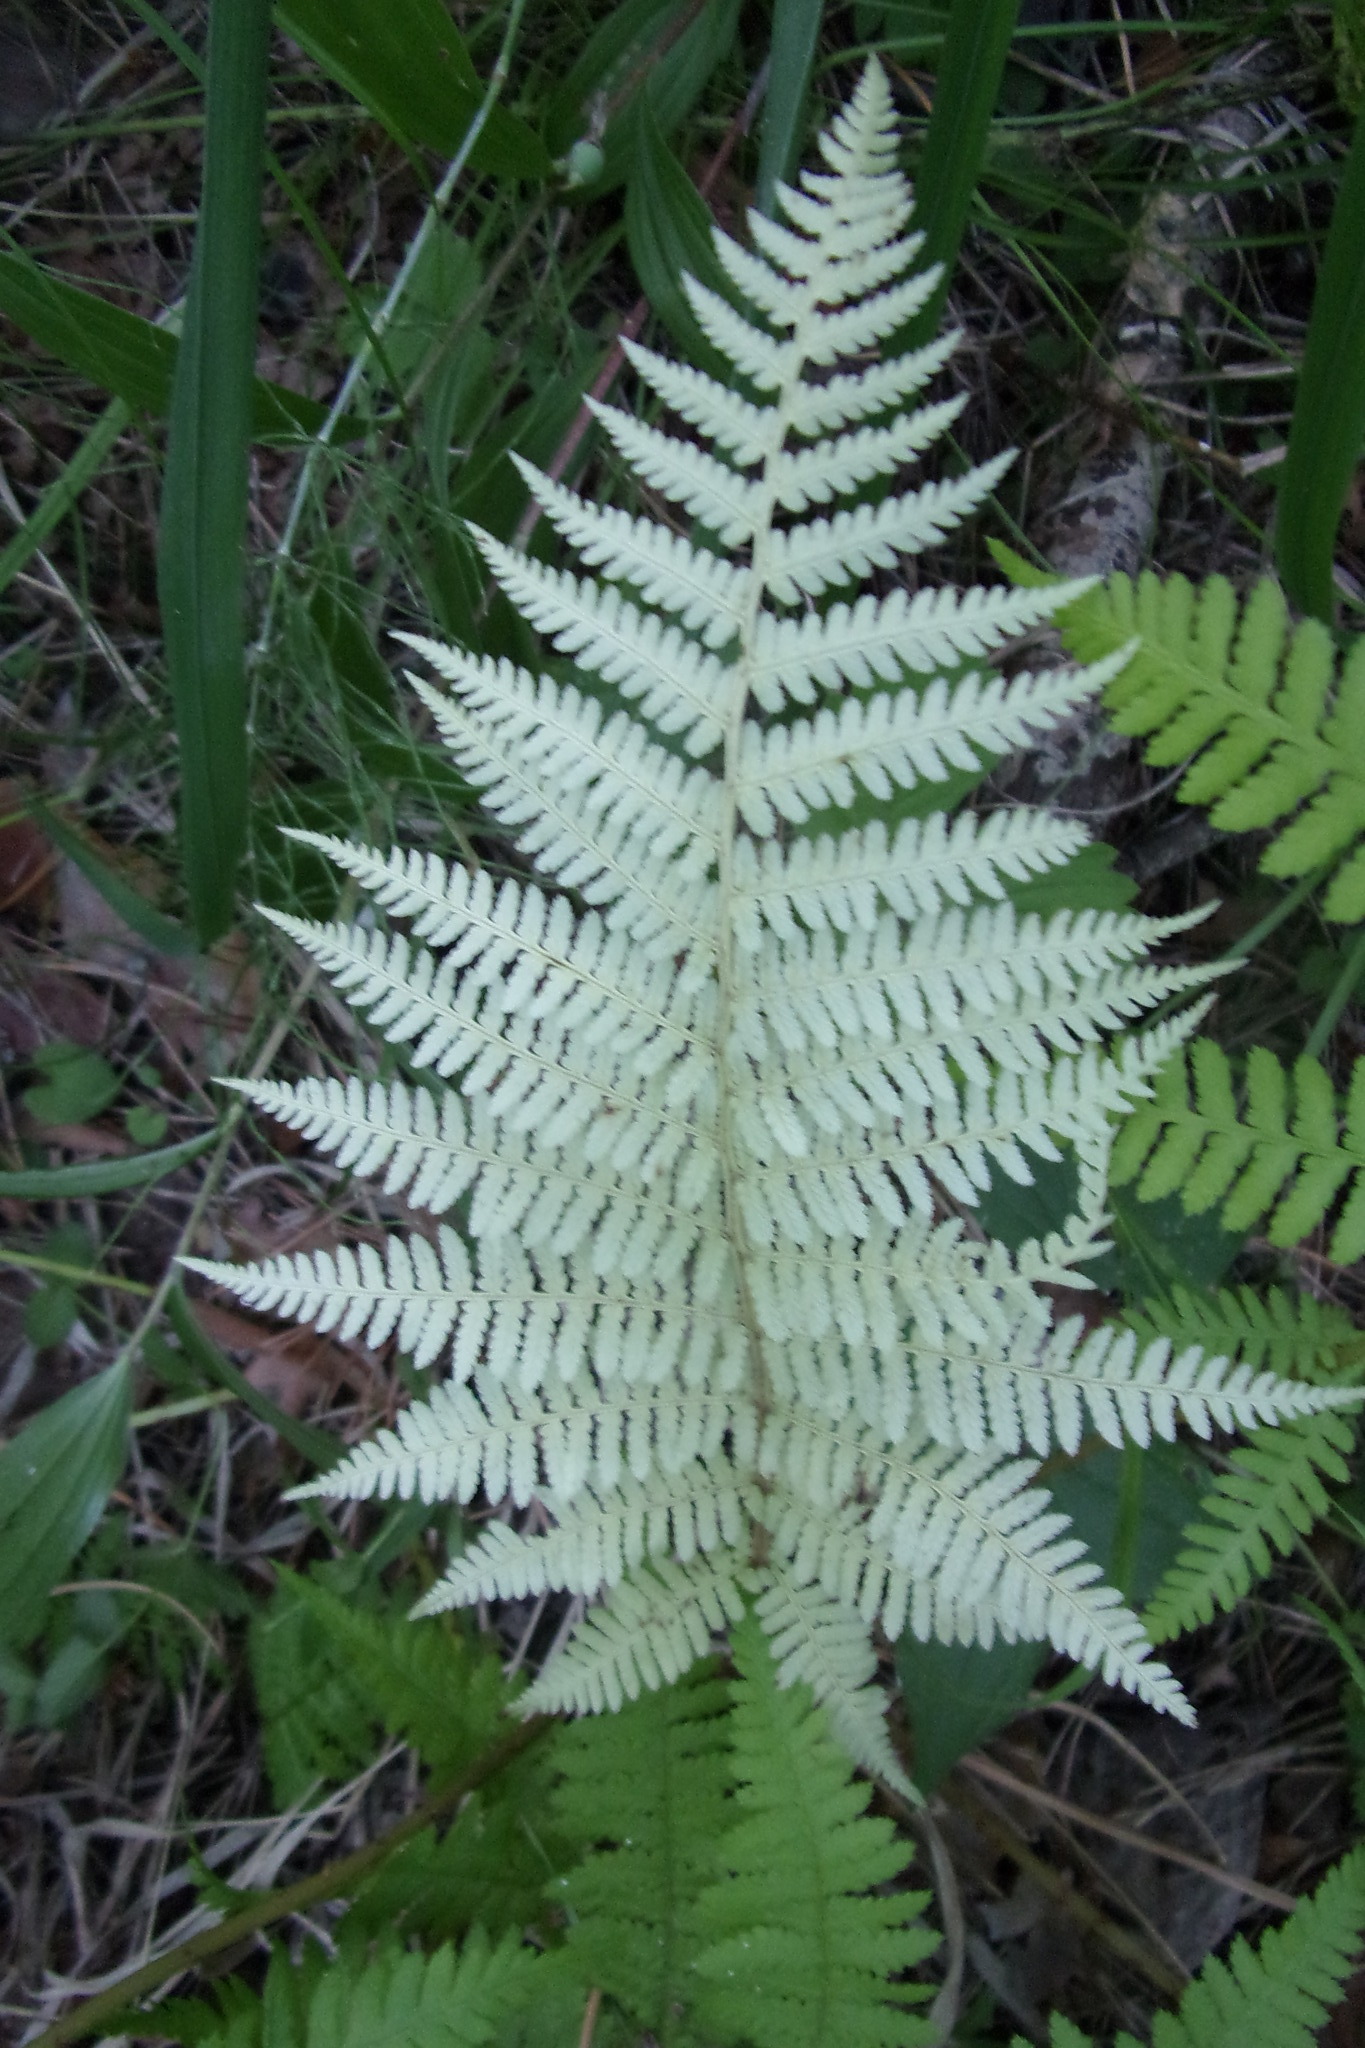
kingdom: Plantae
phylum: Tracheophyta
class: Polypodiopsida
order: Polypodiales
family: Athyriaceae
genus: Athyrium
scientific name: Athyrium filix-femina
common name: Lady fern
